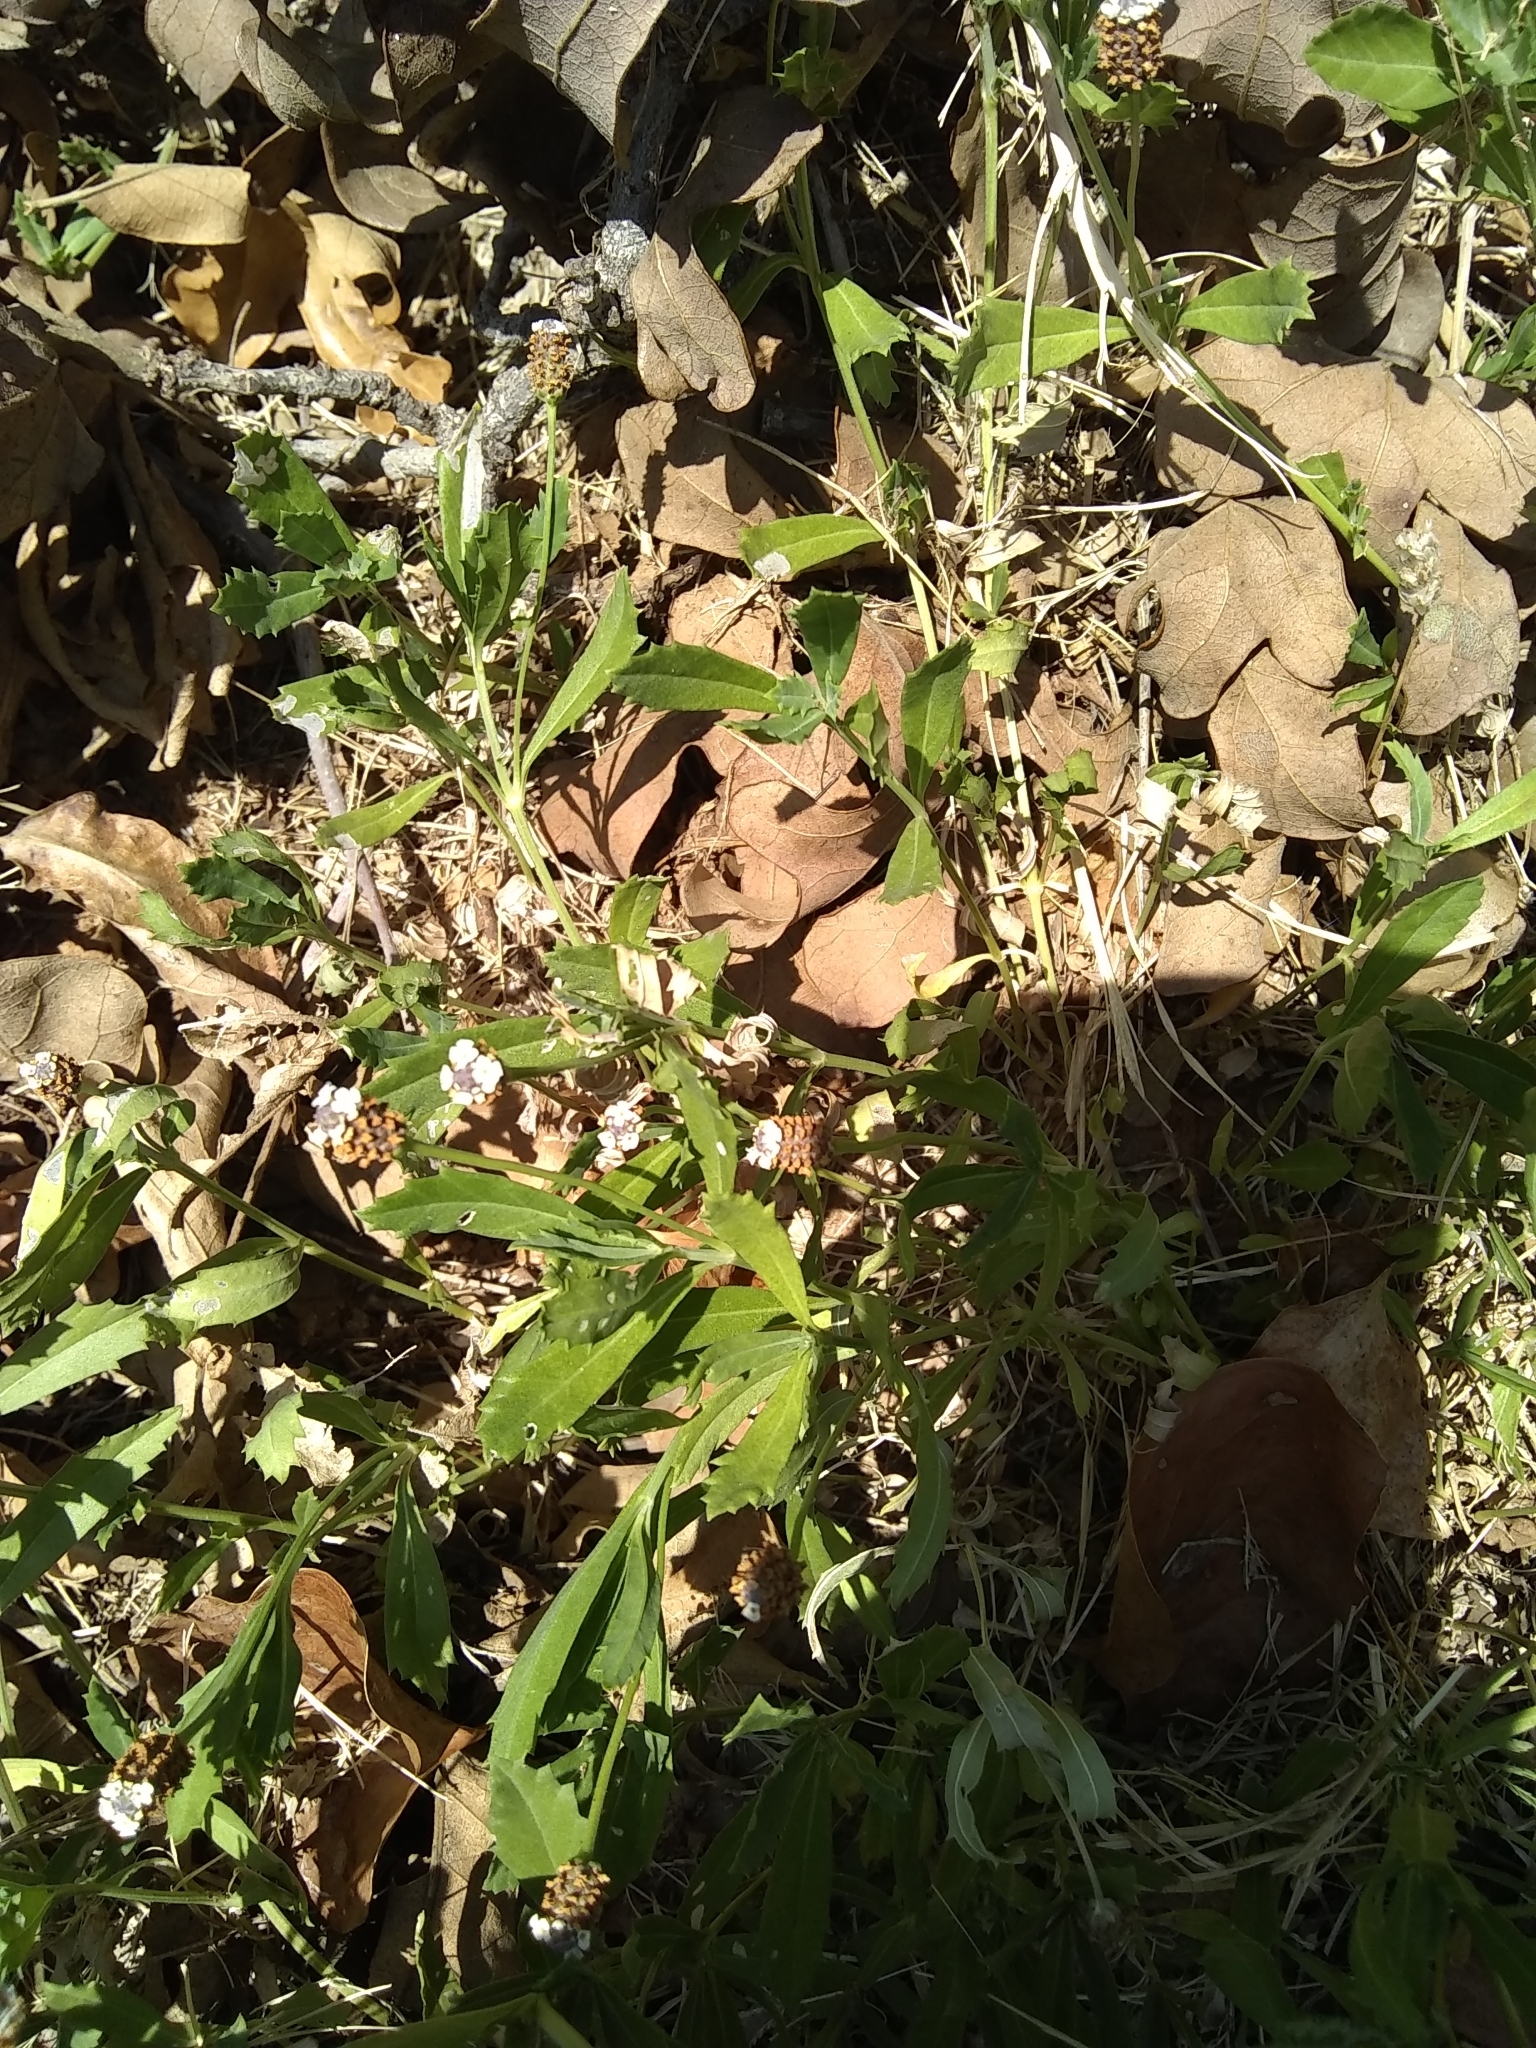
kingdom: Plantae
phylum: Tracheophyta
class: Magnoliopsida
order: Lamiales
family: Verbenaceae
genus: Phyla
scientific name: Phyla nodiflora
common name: Frogfruit
